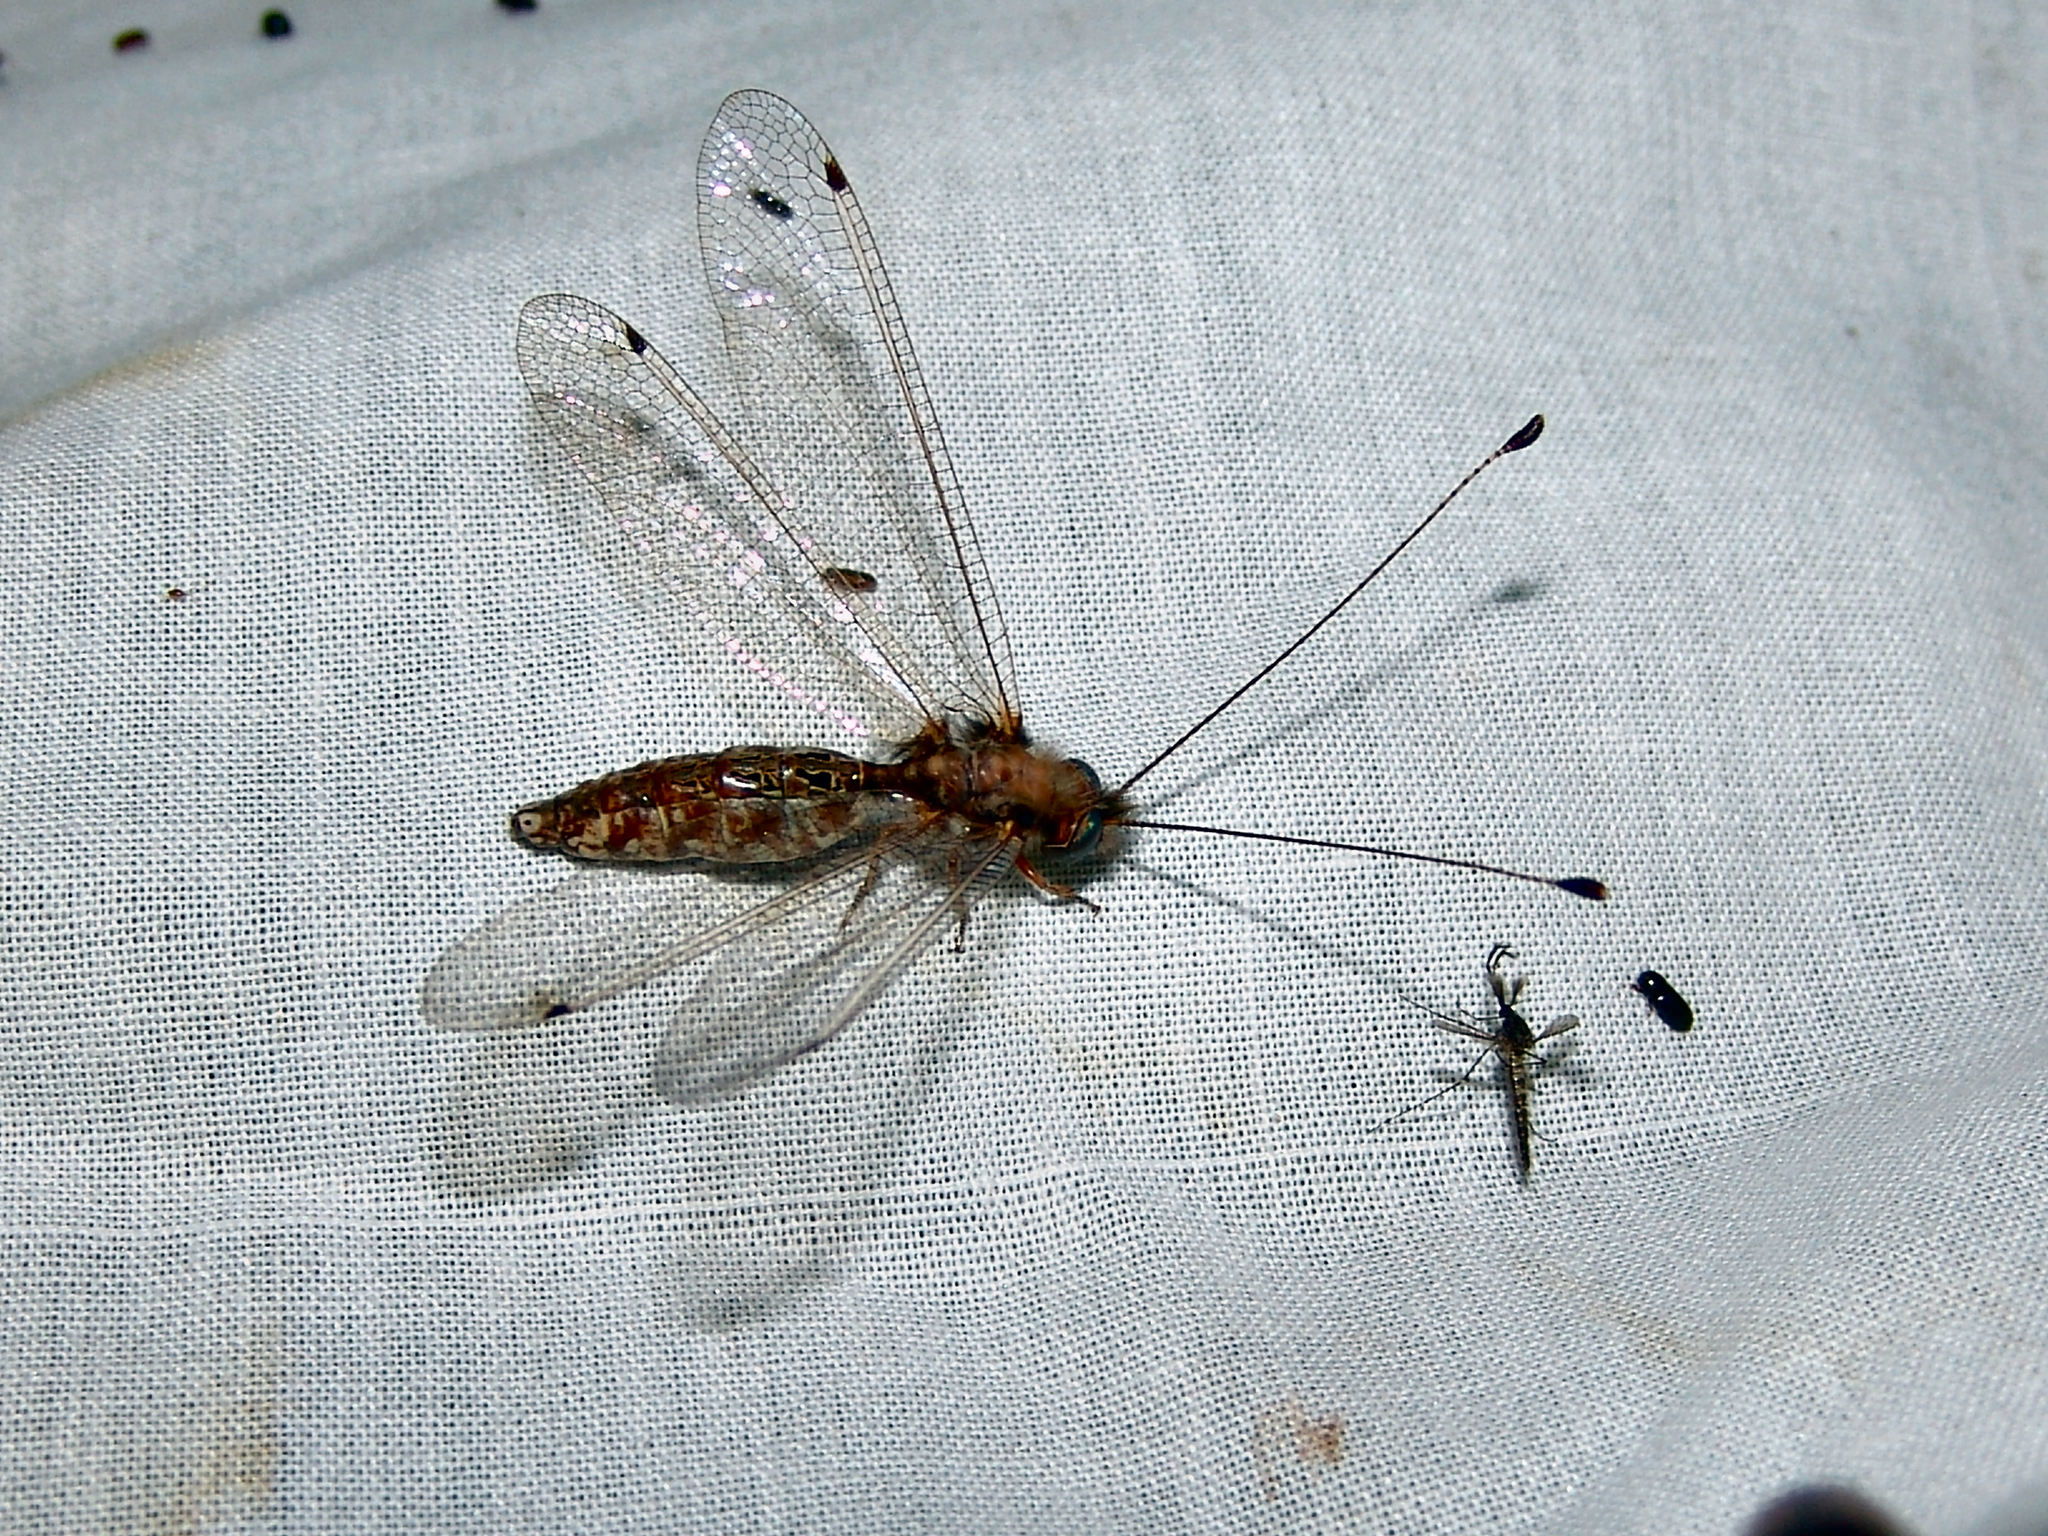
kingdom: Animalia
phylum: Arthropoda
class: Insecta
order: Neuroptera
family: Ascalaphidae
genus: Ululodes
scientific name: Ululodes macleayanus
